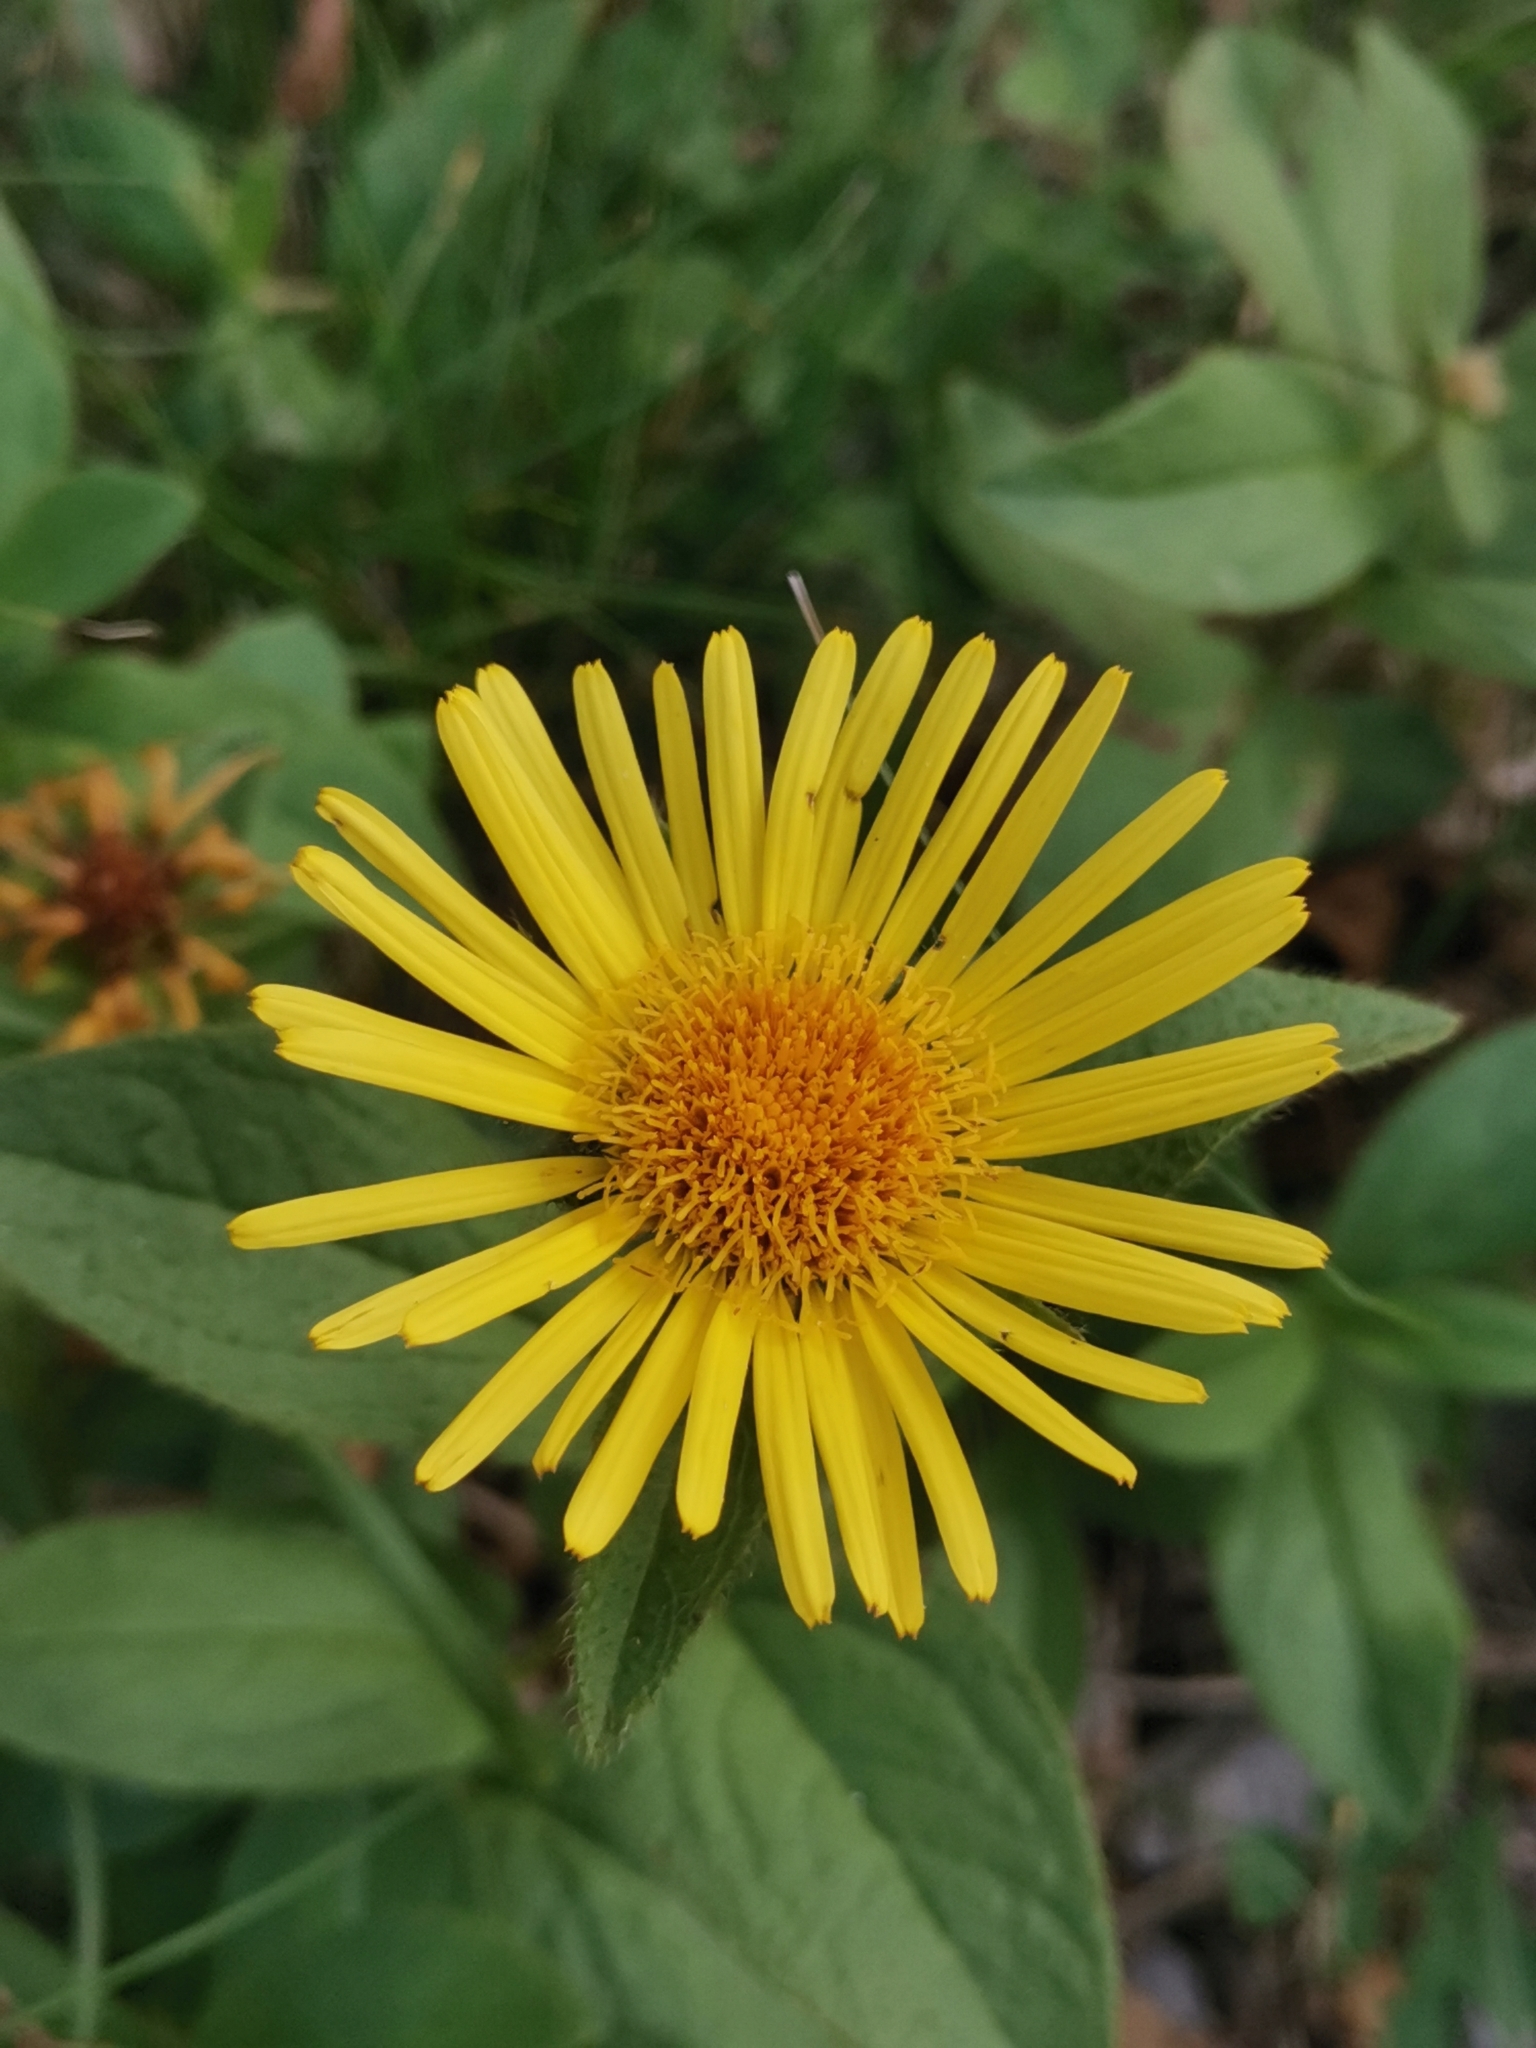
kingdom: Plantae
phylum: Tracheophyta
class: Magnoliopsida
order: Asterales
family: Asteraceae
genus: Pentanema
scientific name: Pentanema hirtum
